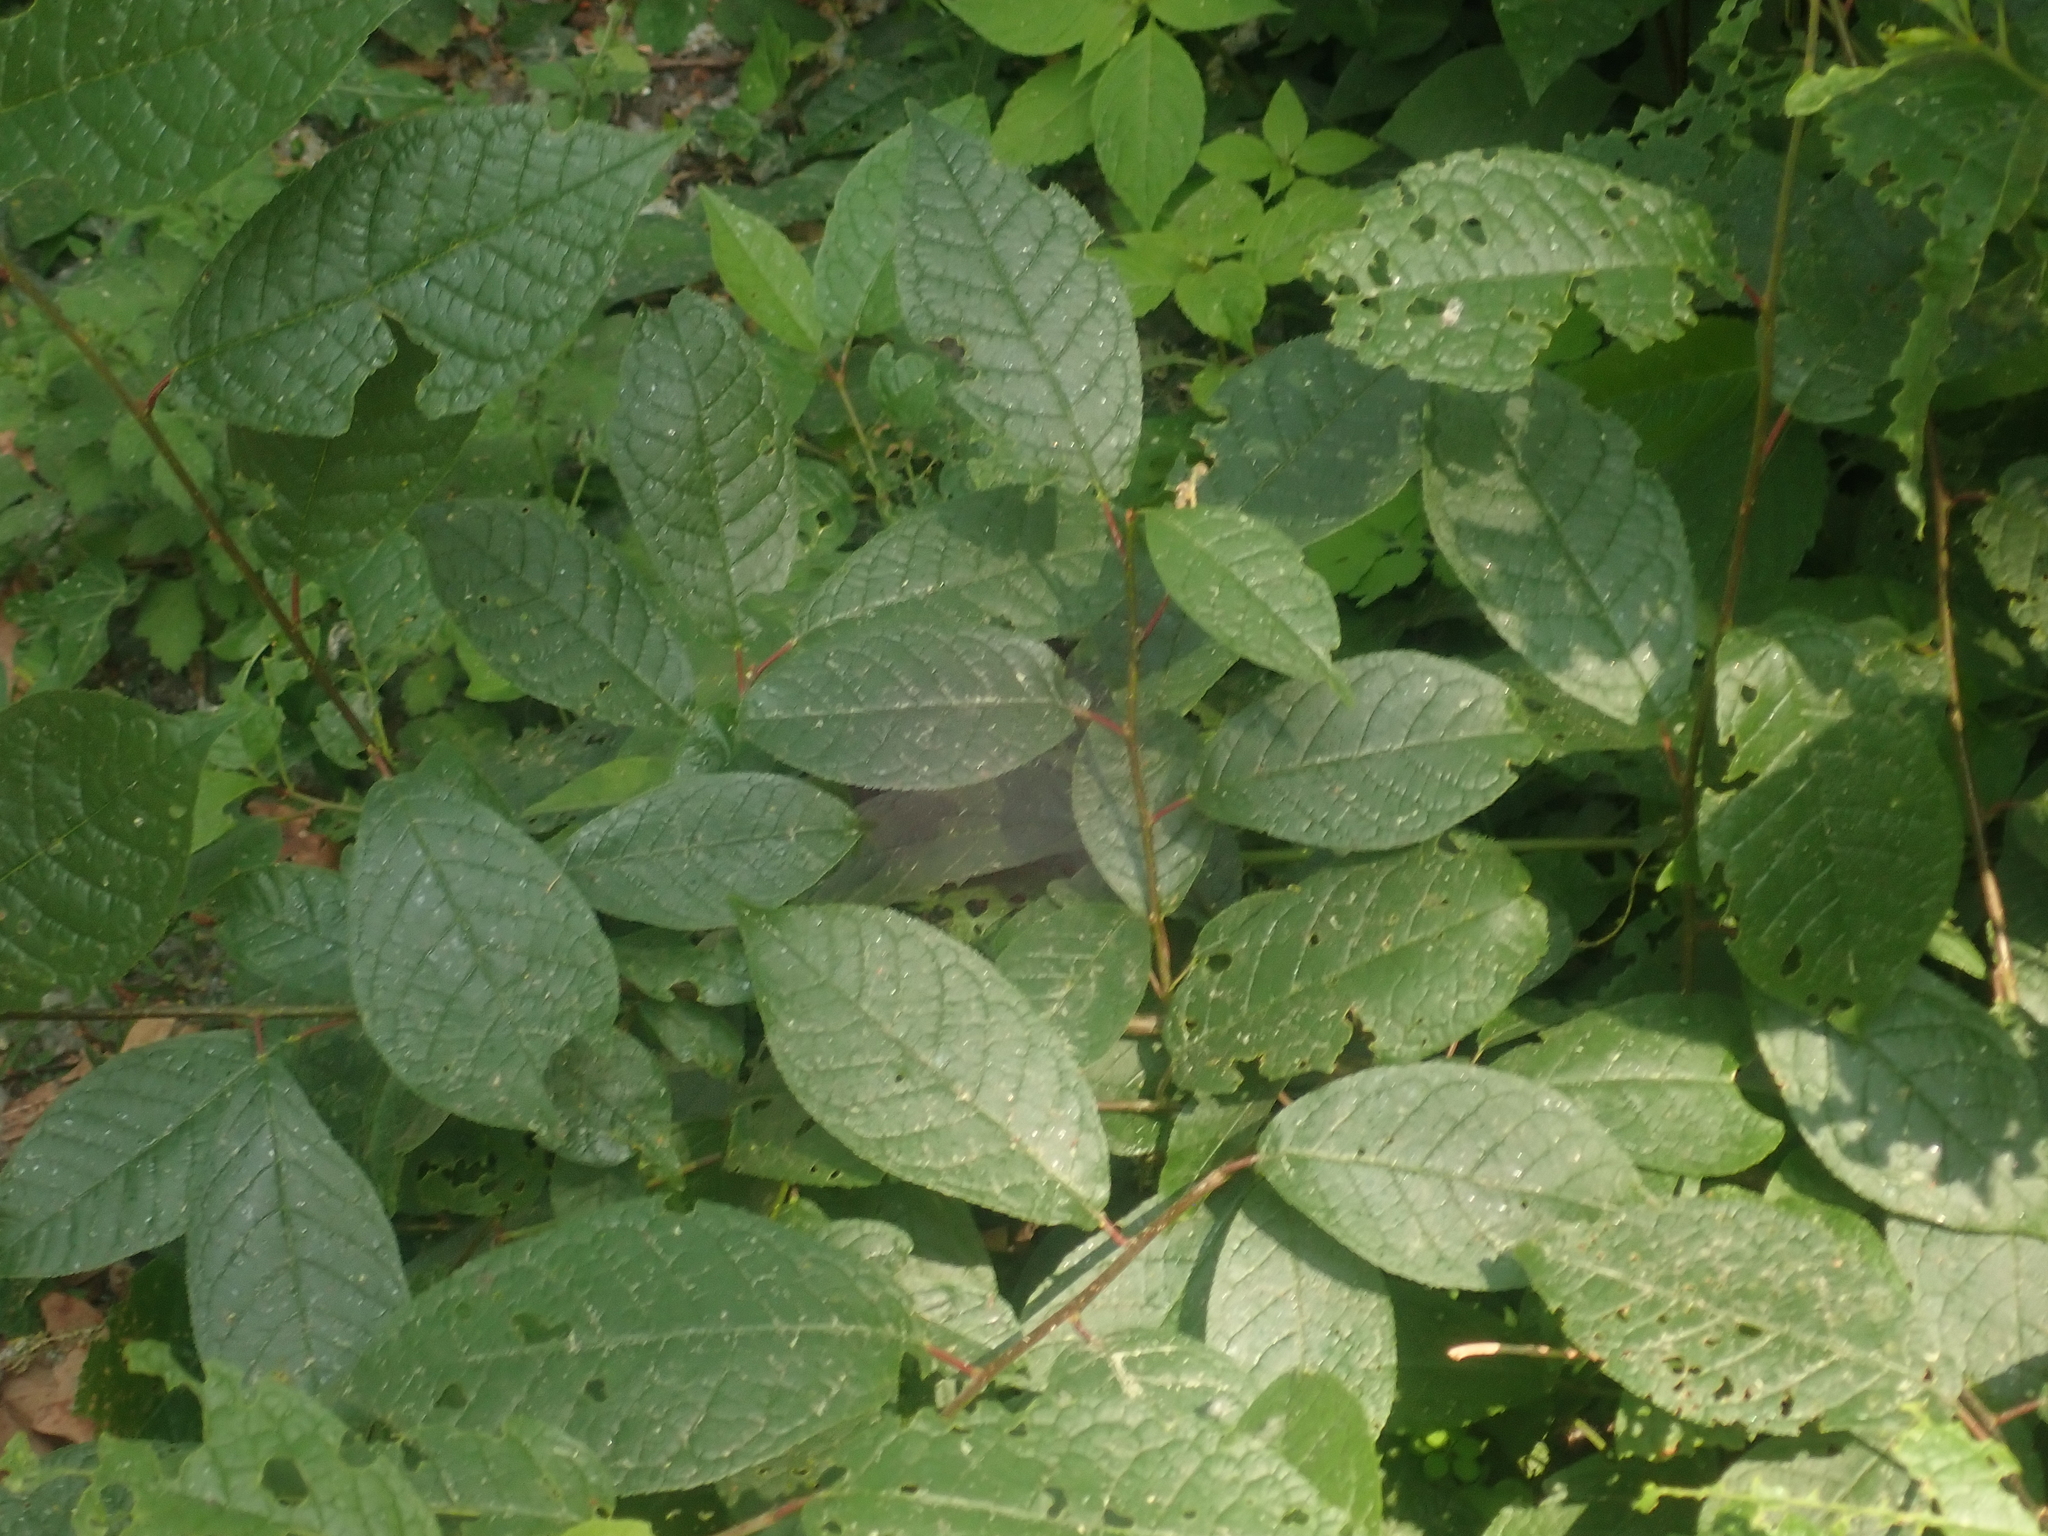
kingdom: Plantae
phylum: Tracheophyta
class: Magnoliopsida
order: Rosales
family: Rosaceae
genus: Prunus
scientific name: Prunus padus
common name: Bird cherry
